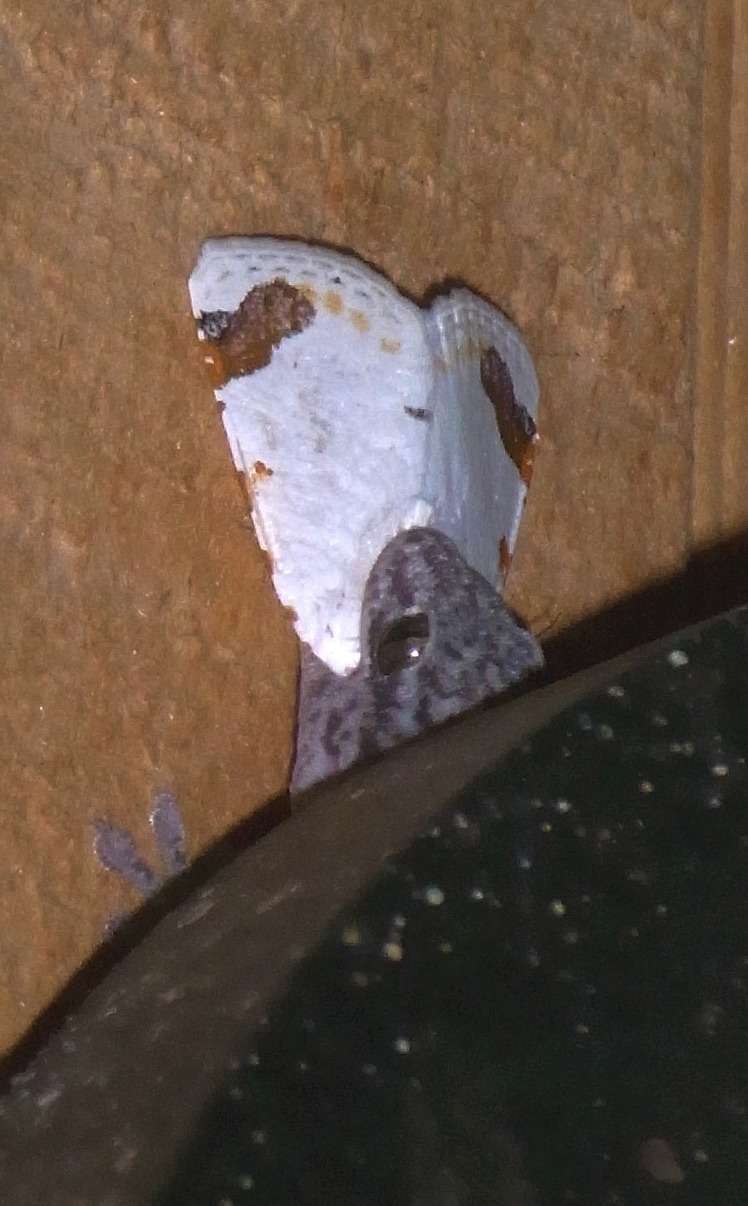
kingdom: Animalia
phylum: Arthropoda
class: Insecta
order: Lepidoptera
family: Noctuidae
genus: Chasmina
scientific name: Chasmina pulchra
